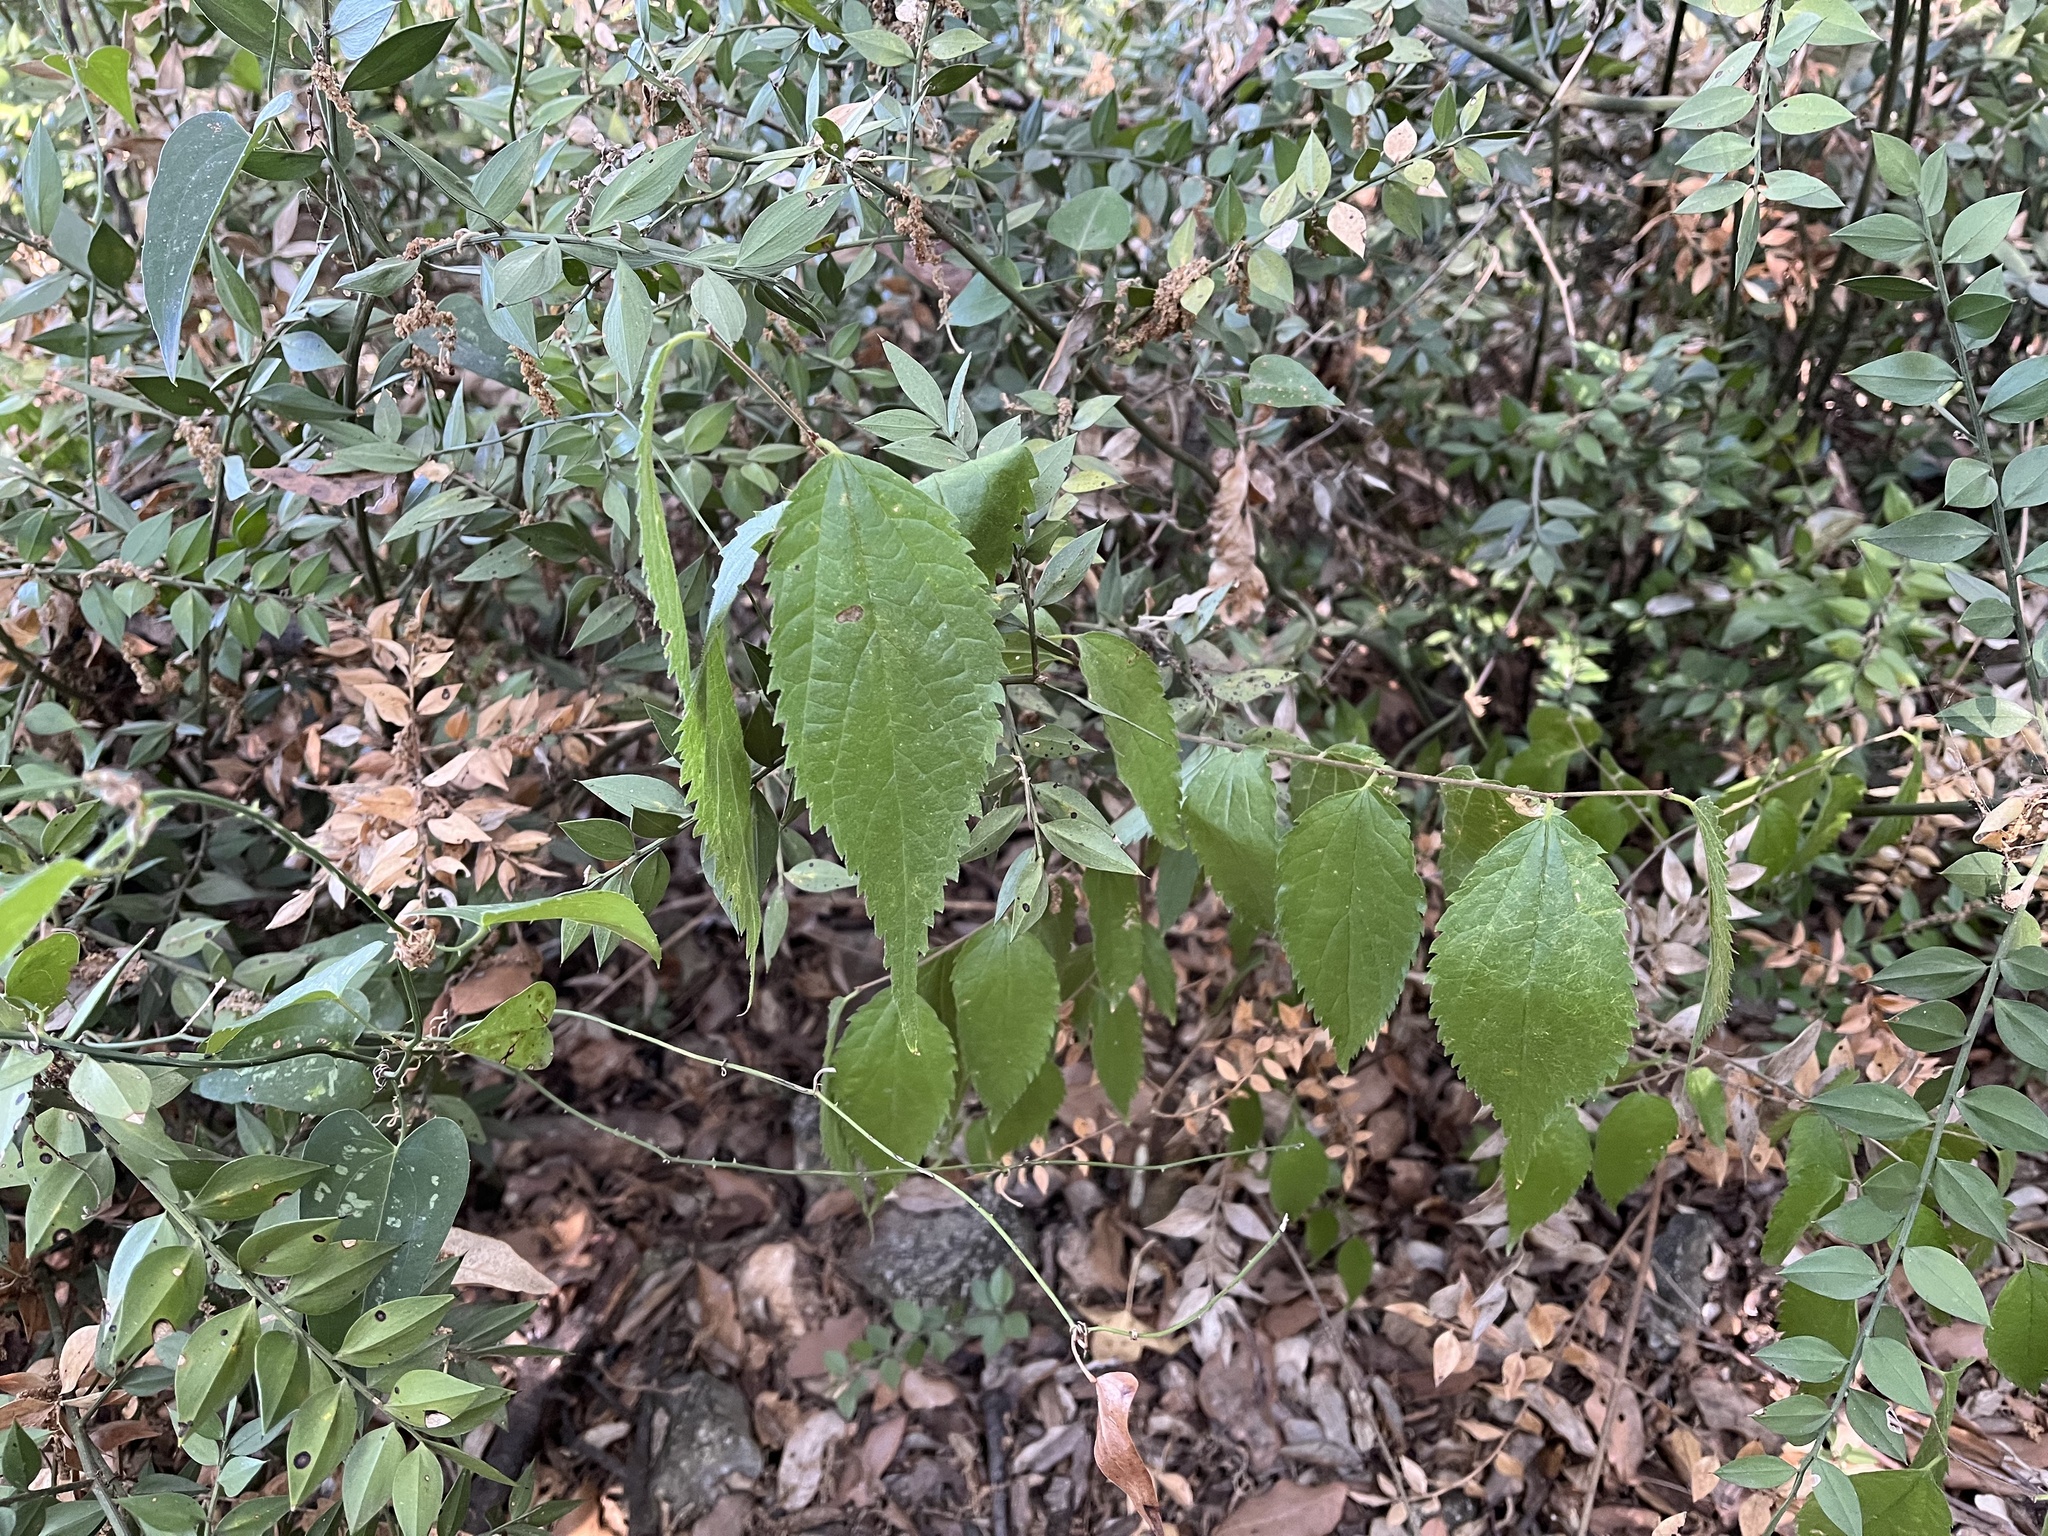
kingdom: Plantae
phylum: Tracheophyta
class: Magnoliopsida
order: Rosales
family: Cannabaceae
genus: Celtis
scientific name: Celtis australis
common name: European hackberry
